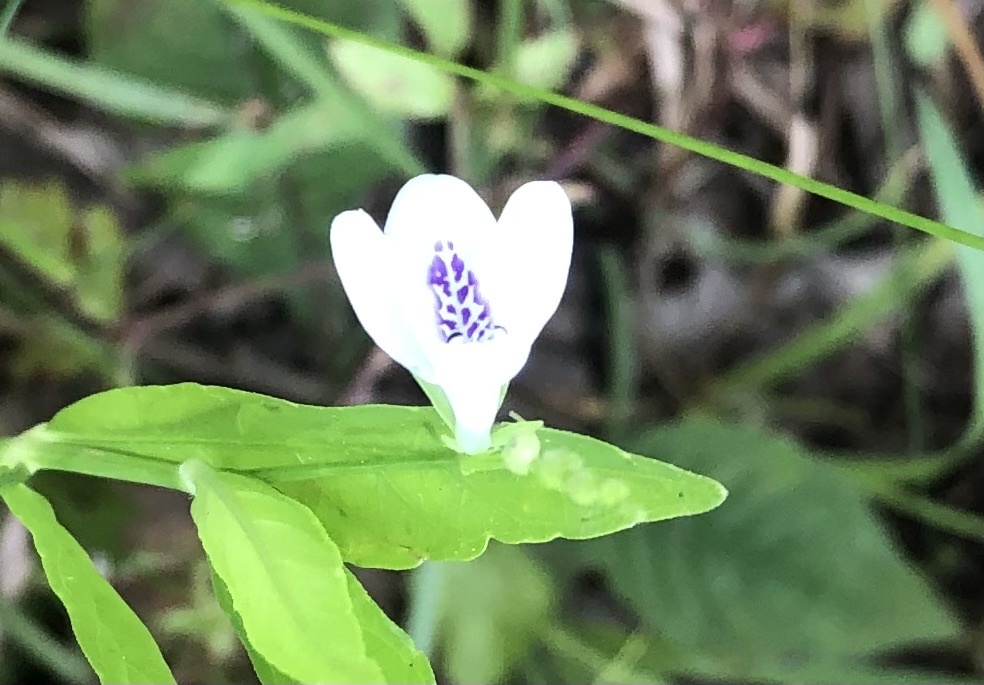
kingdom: Plantae
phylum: Tracheophyta
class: Magnoliopsida
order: Lamiales
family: Acanthaceae
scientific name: Acanthaceae
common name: Acanthaceae
